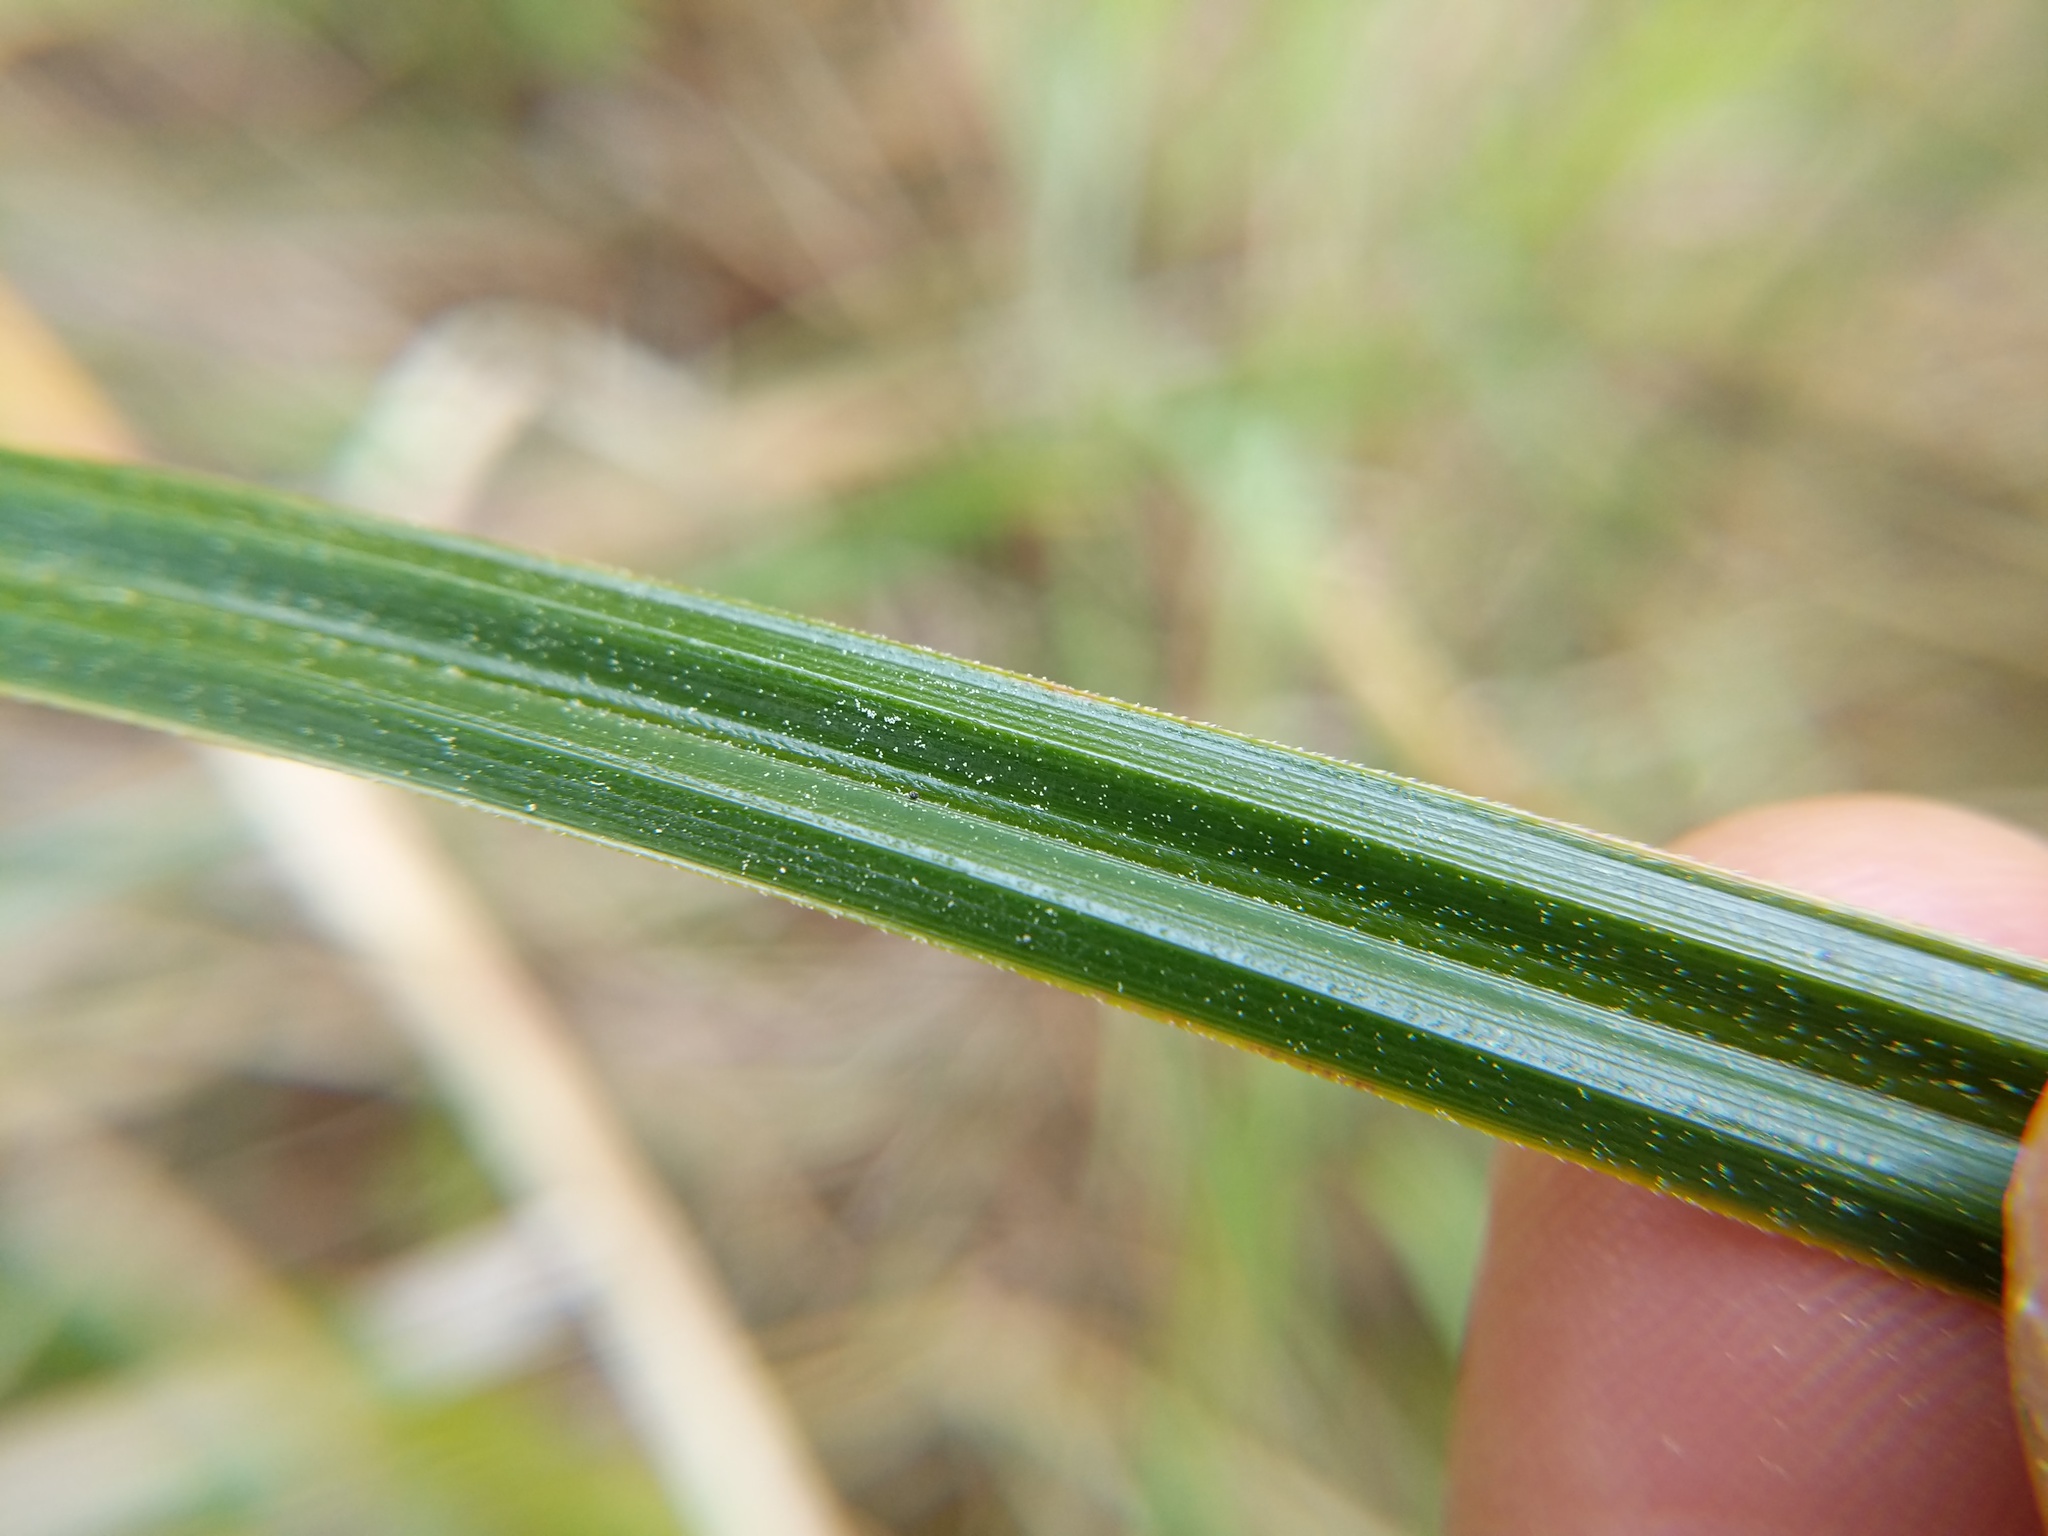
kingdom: Plantae
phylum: Tracheophyta
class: Liliopsida
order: Poales
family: Cyperaceae
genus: Carex
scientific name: Carex obnupta
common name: Slough sedge
